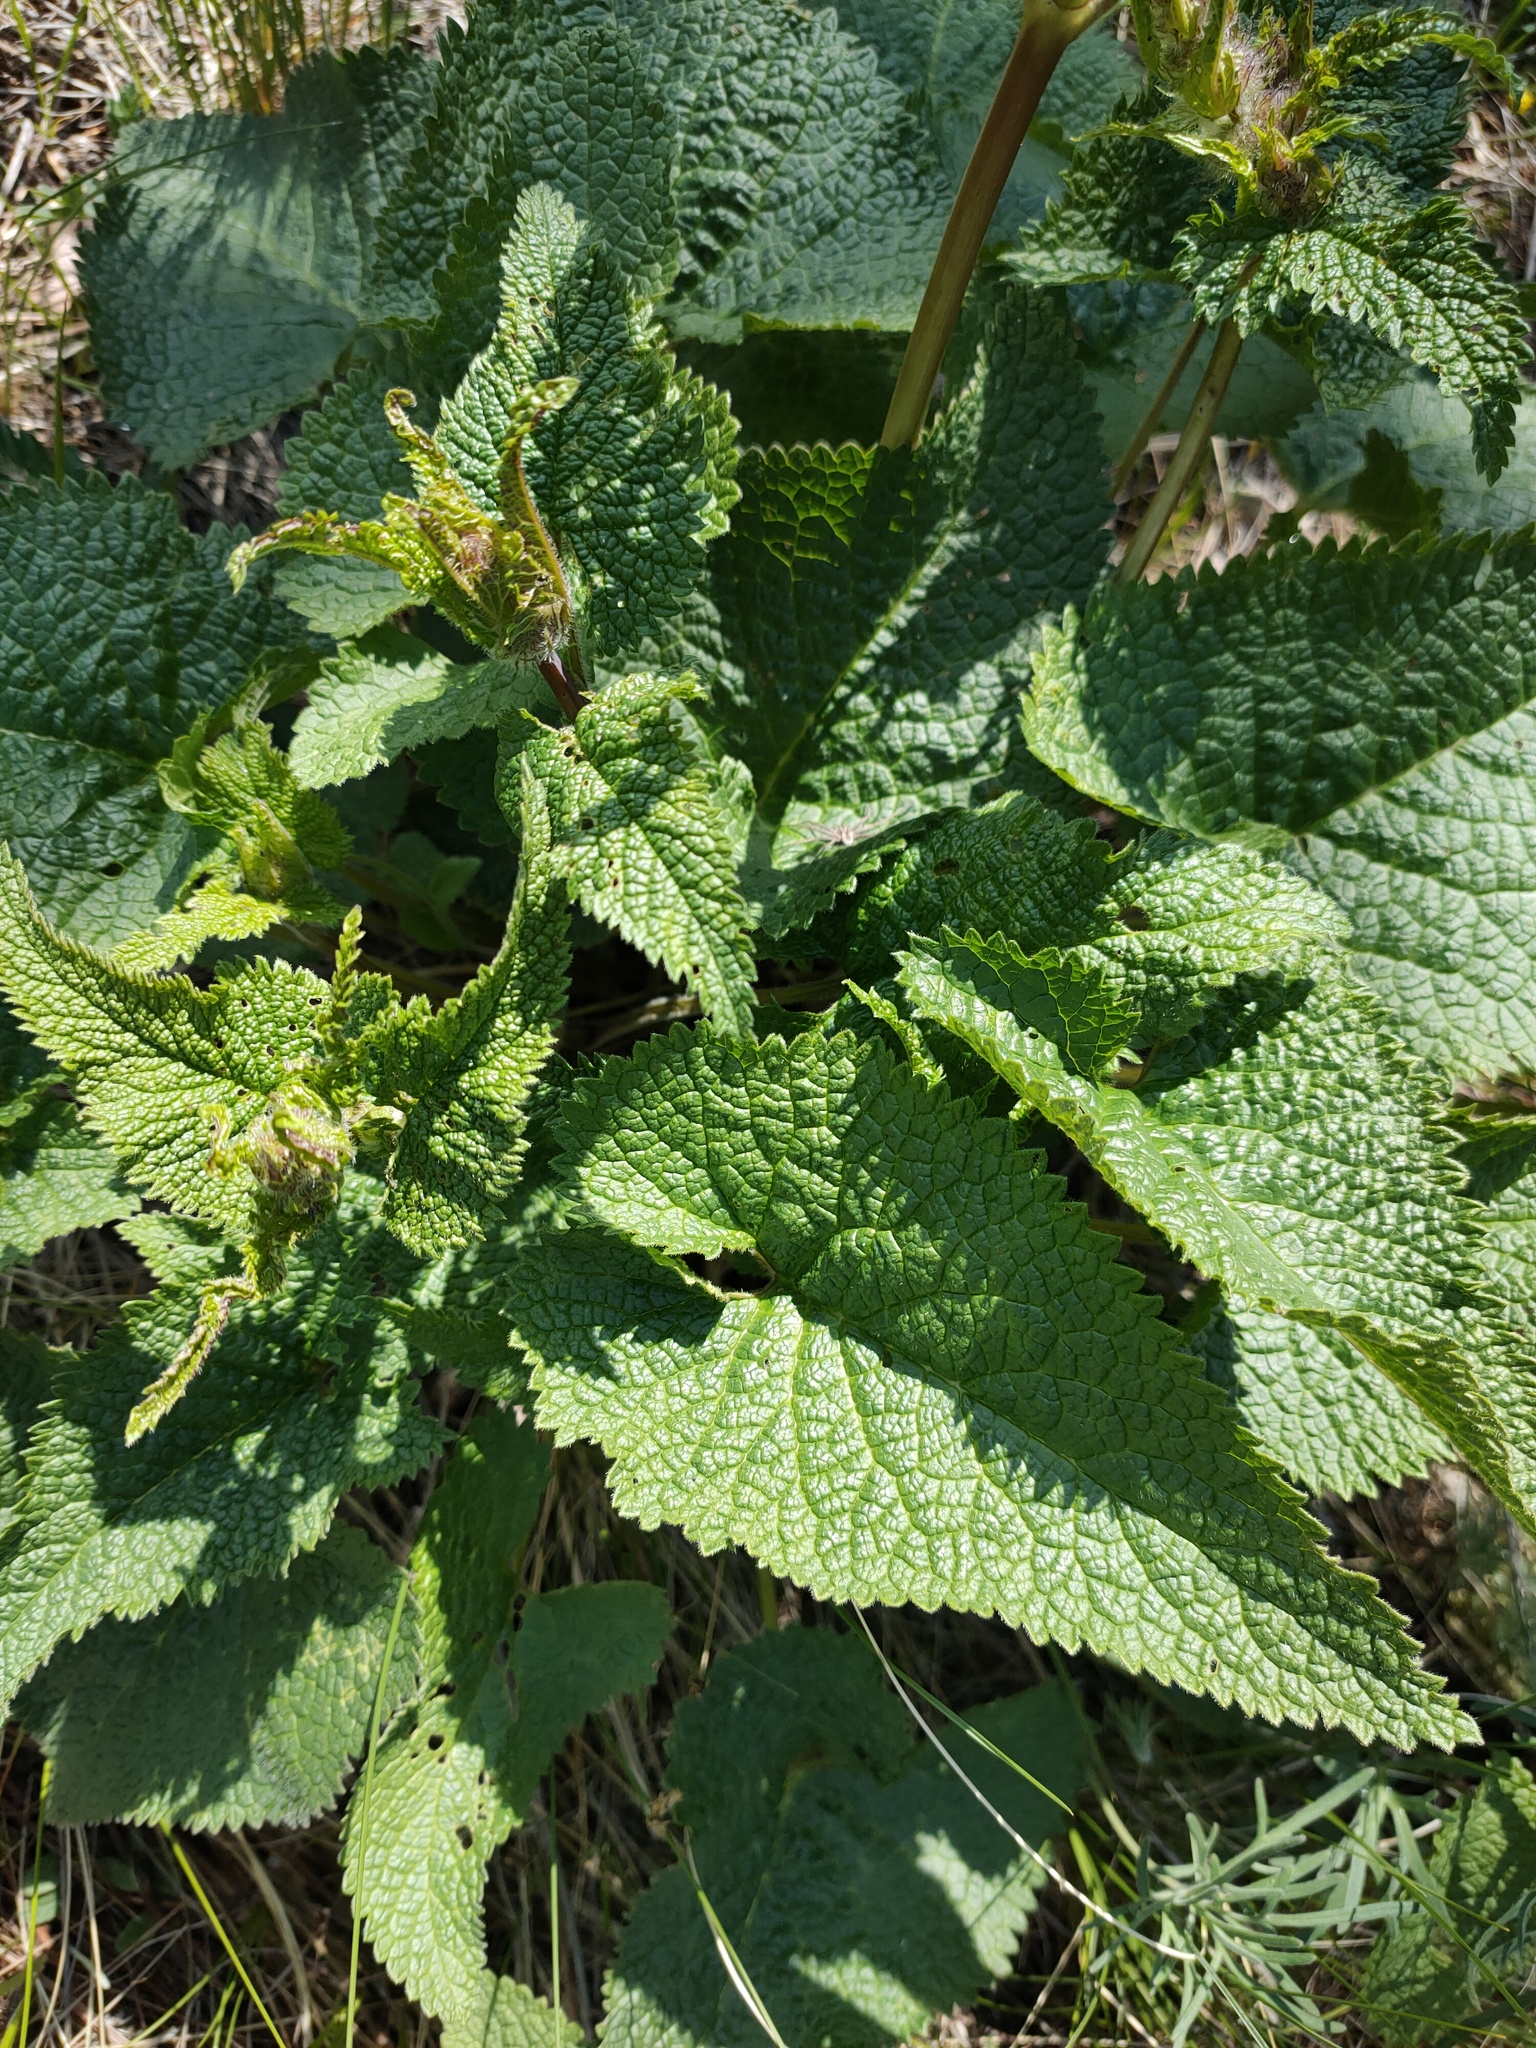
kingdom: Plantae
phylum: Tracheophyta
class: Magnoliopsida
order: Lamiales
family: Lamiaceae
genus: Phlomoides
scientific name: Phlomoides tuberosa
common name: Tuberous jerusalem sage
